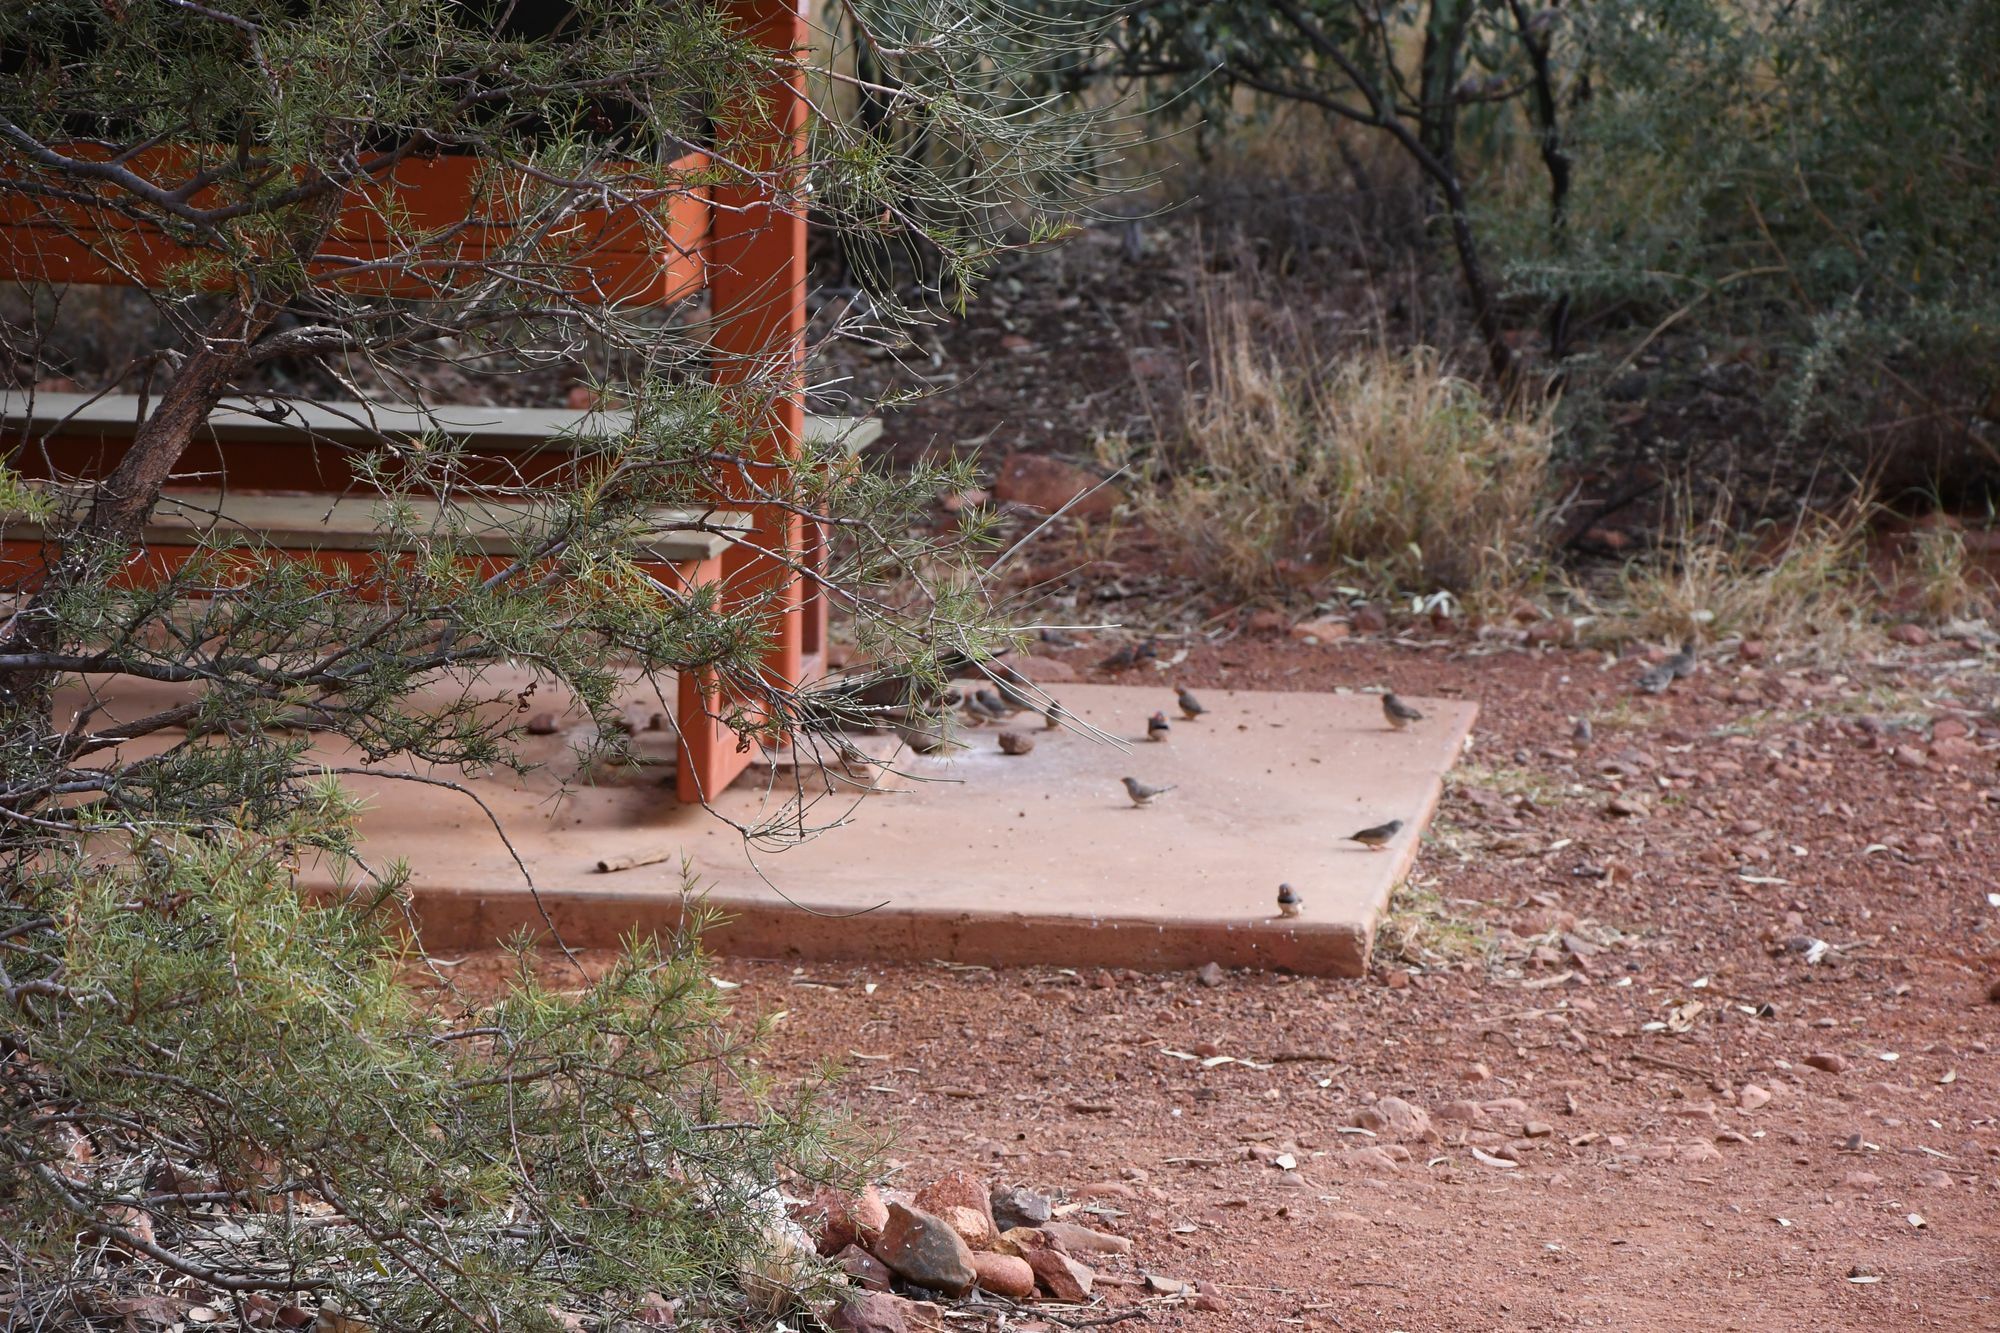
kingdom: Animalia
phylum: Chordata
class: Aves
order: Passeriformes
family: Estrildidae
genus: Taeniopygia
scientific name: Taeniopygia guttata
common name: Zebra finch
